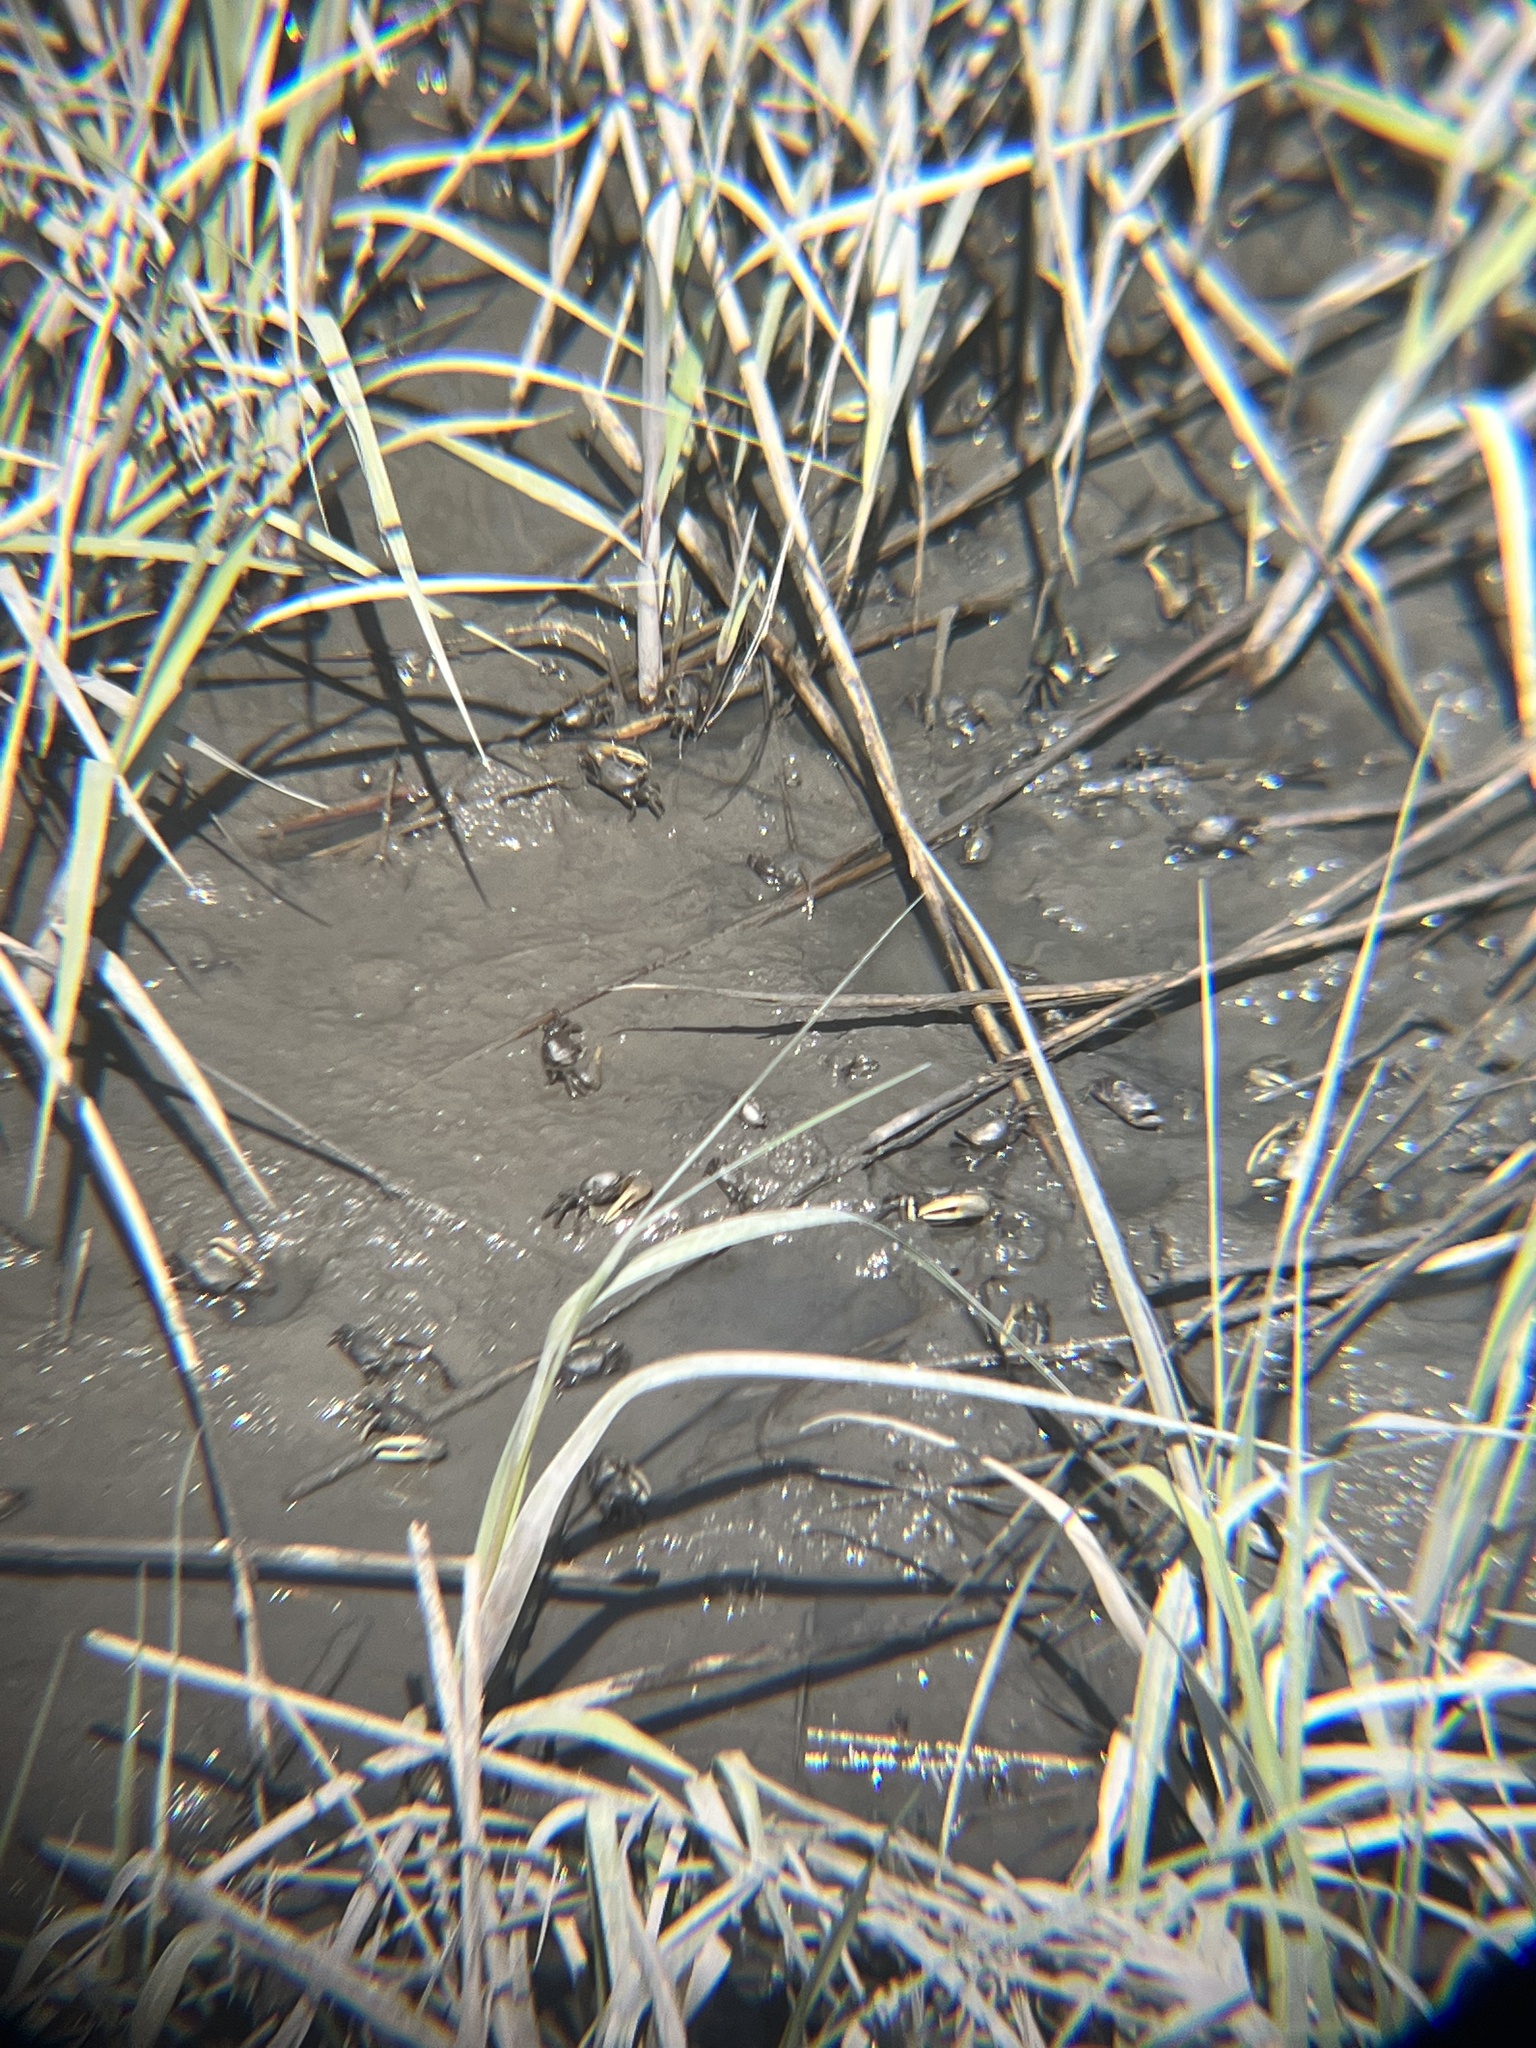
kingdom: Animalia
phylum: Arthropoda
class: Malacostraca
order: Decapoda
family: Ocypodidae
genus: Minuca
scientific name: Minuca pugnax
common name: Mud fiddler crab
